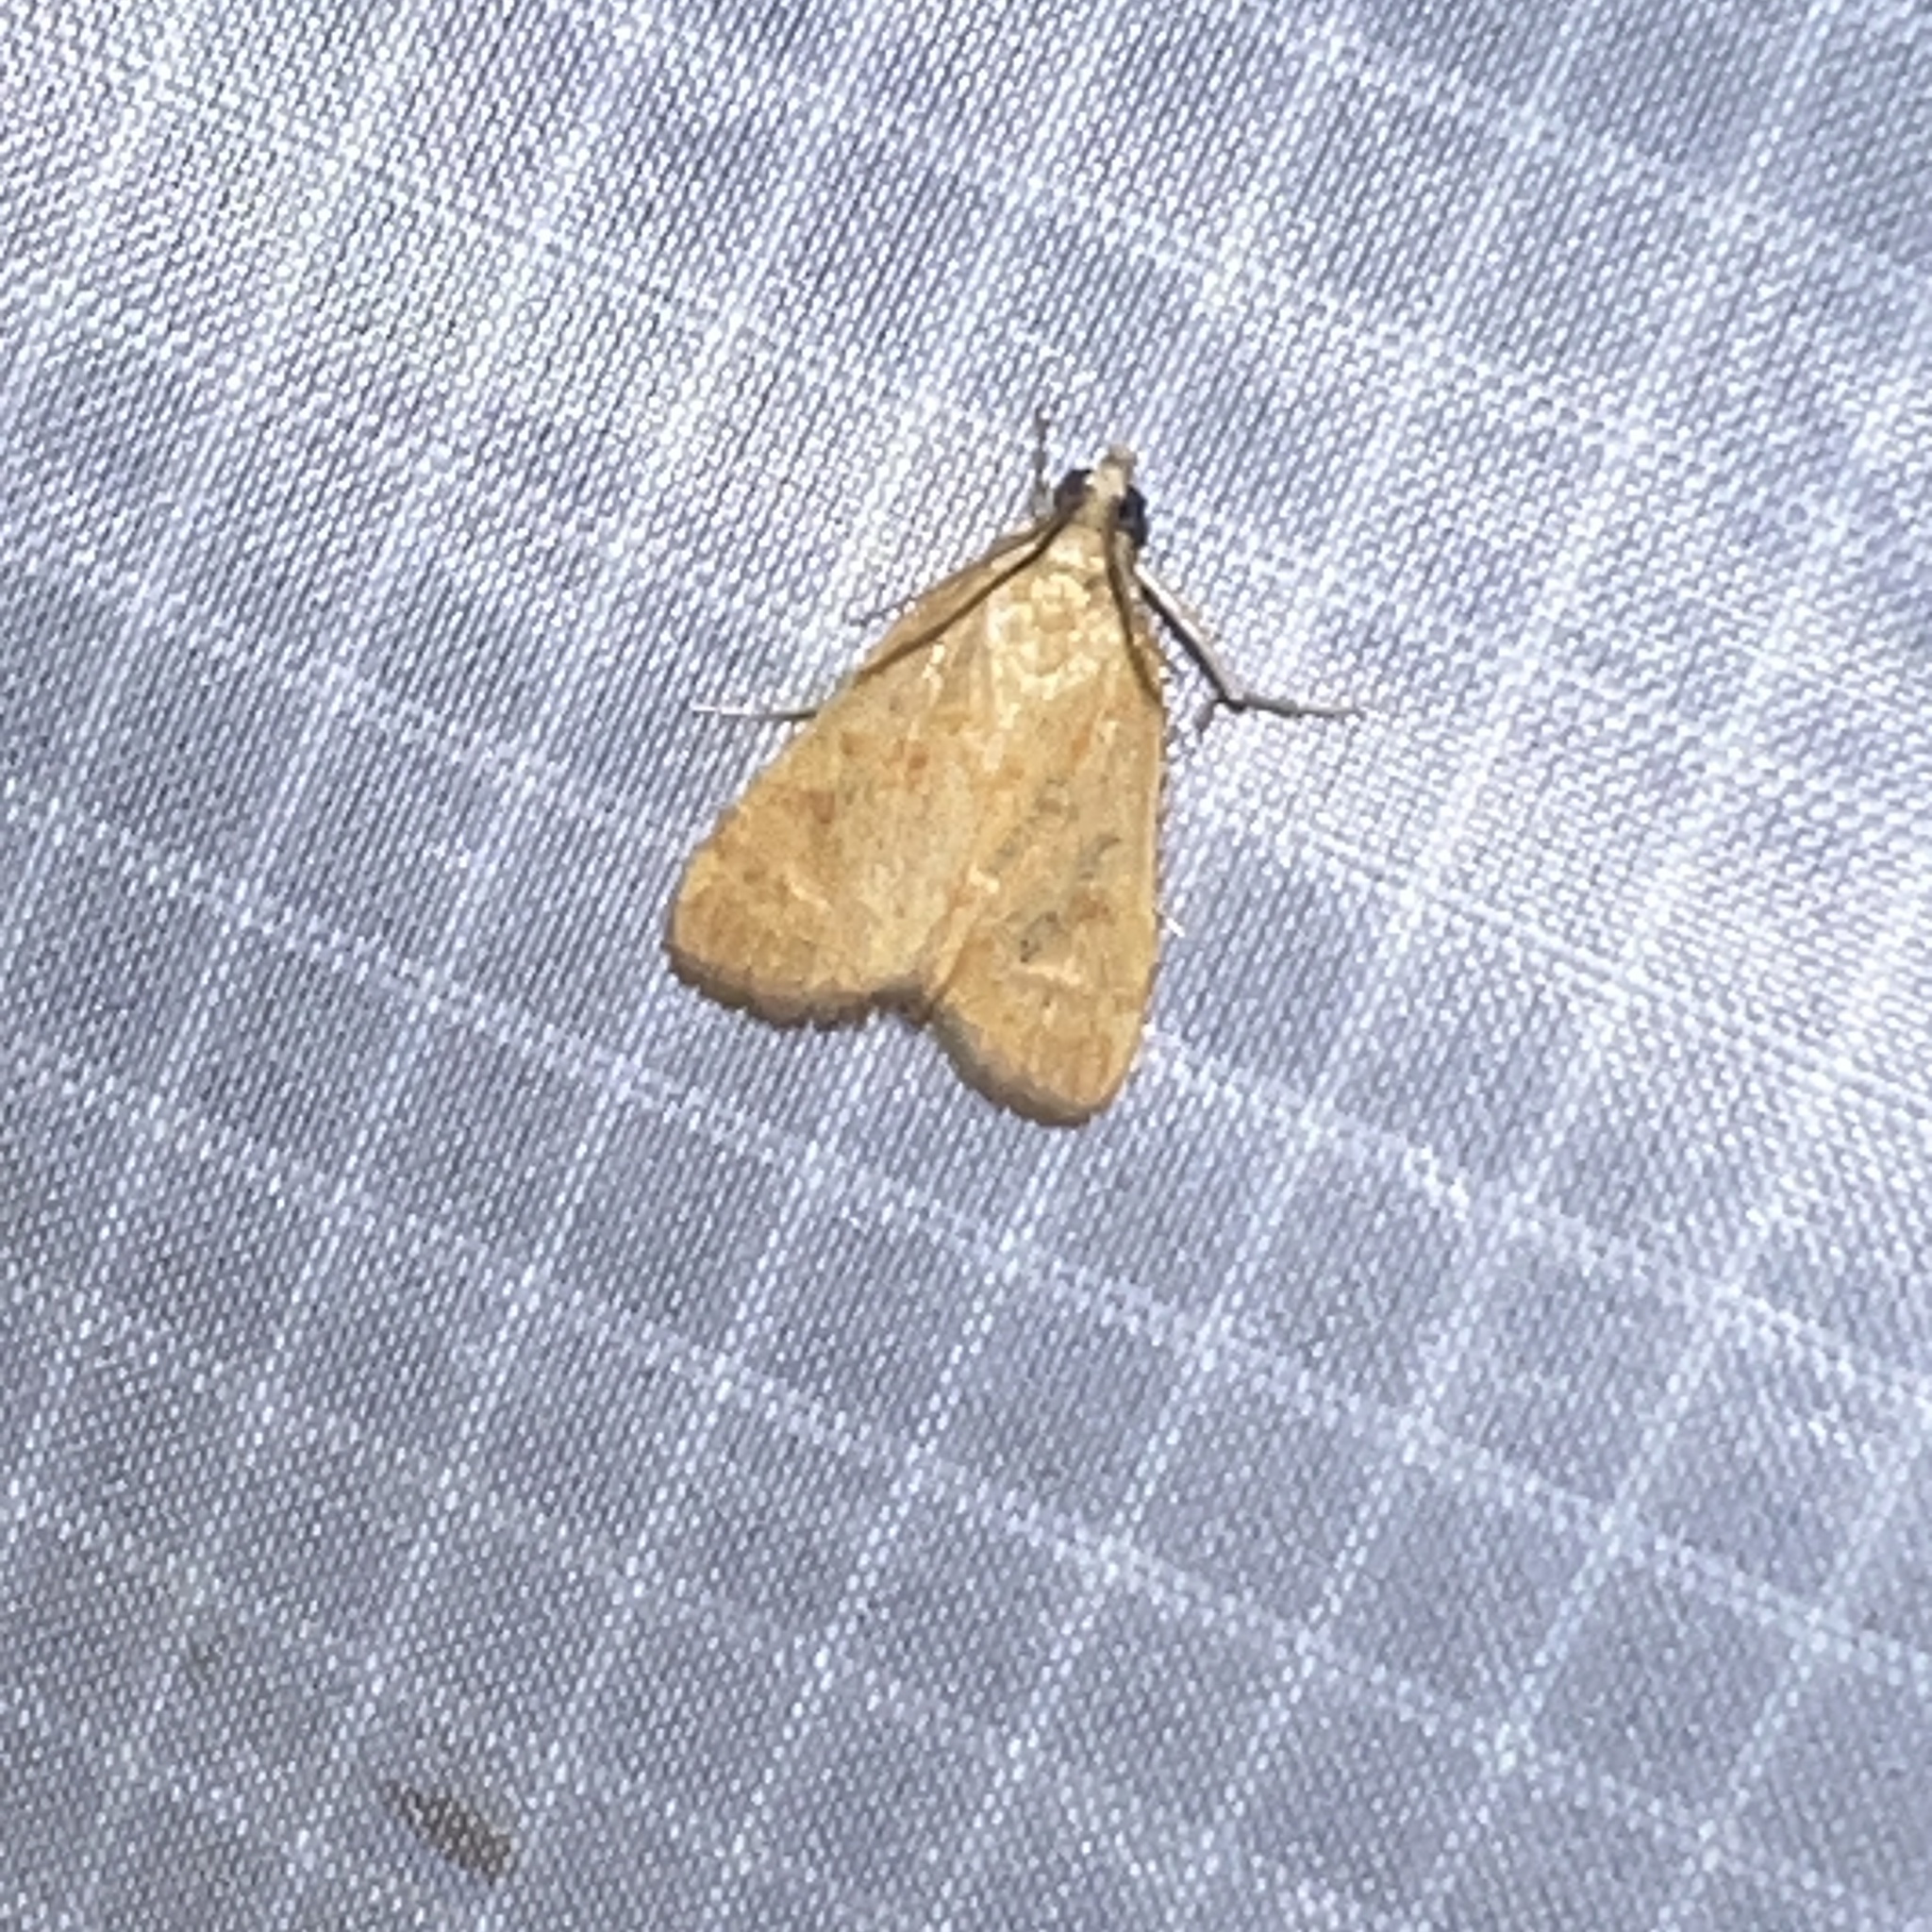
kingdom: Animalia
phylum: Arthropoda
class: Insecta
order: Lepidoptera
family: Crambidae
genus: Achyra
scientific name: Achyra rantalis
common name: Garden webworm
